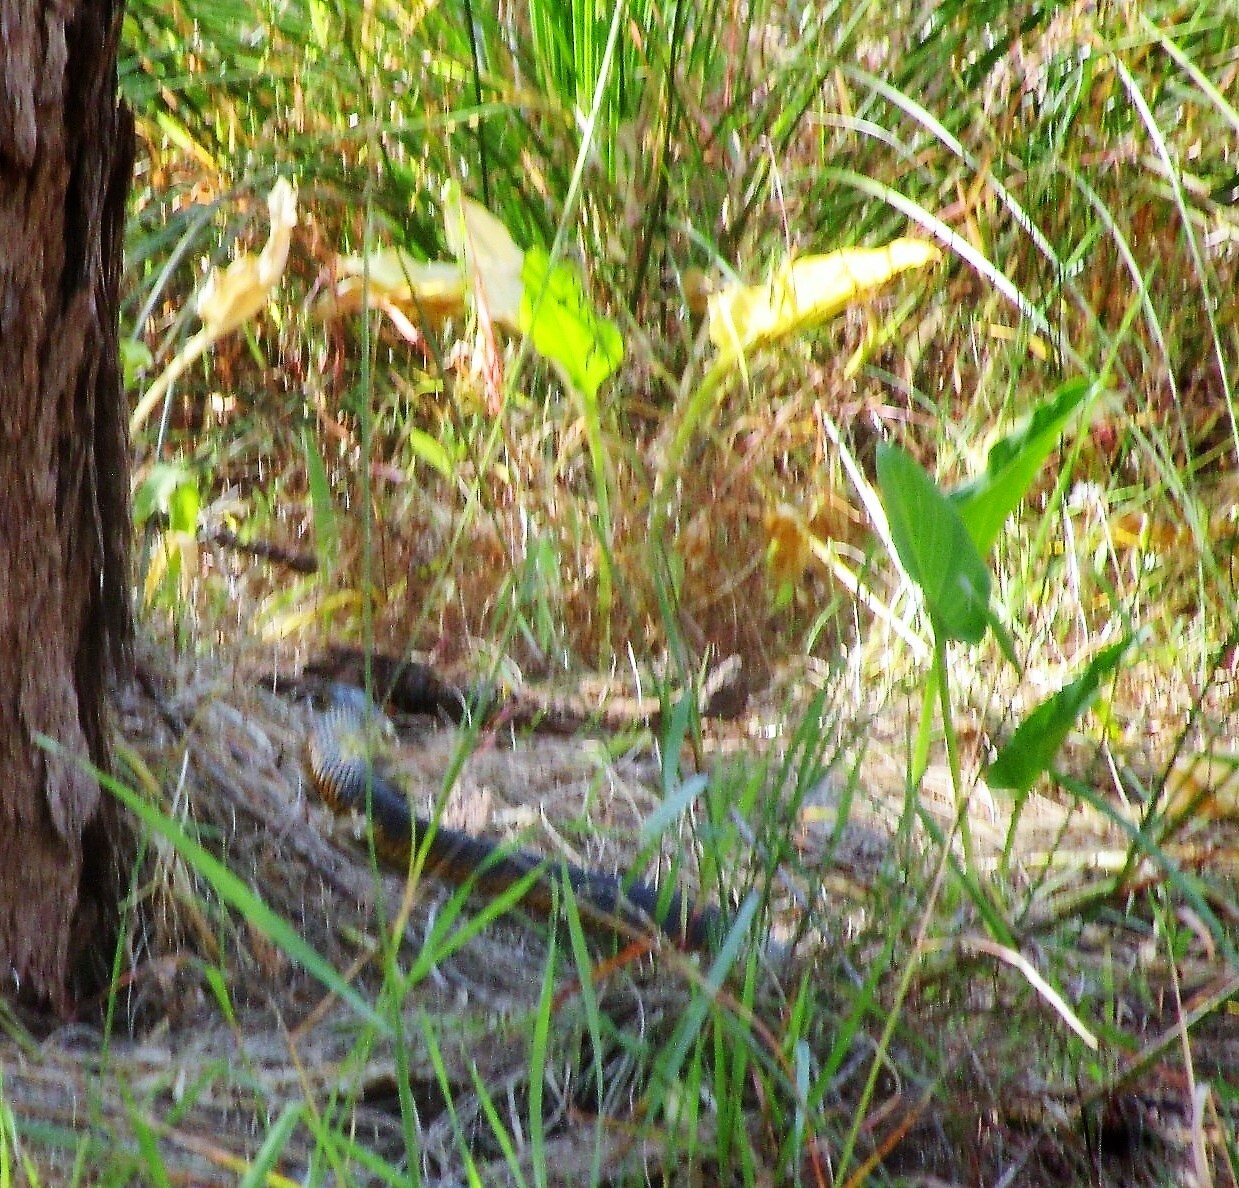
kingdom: Animalia
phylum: Chordata
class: Squamata
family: Elapidae
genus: Notechis
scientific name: Notechis scutatus
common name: Mainland tiger snake
